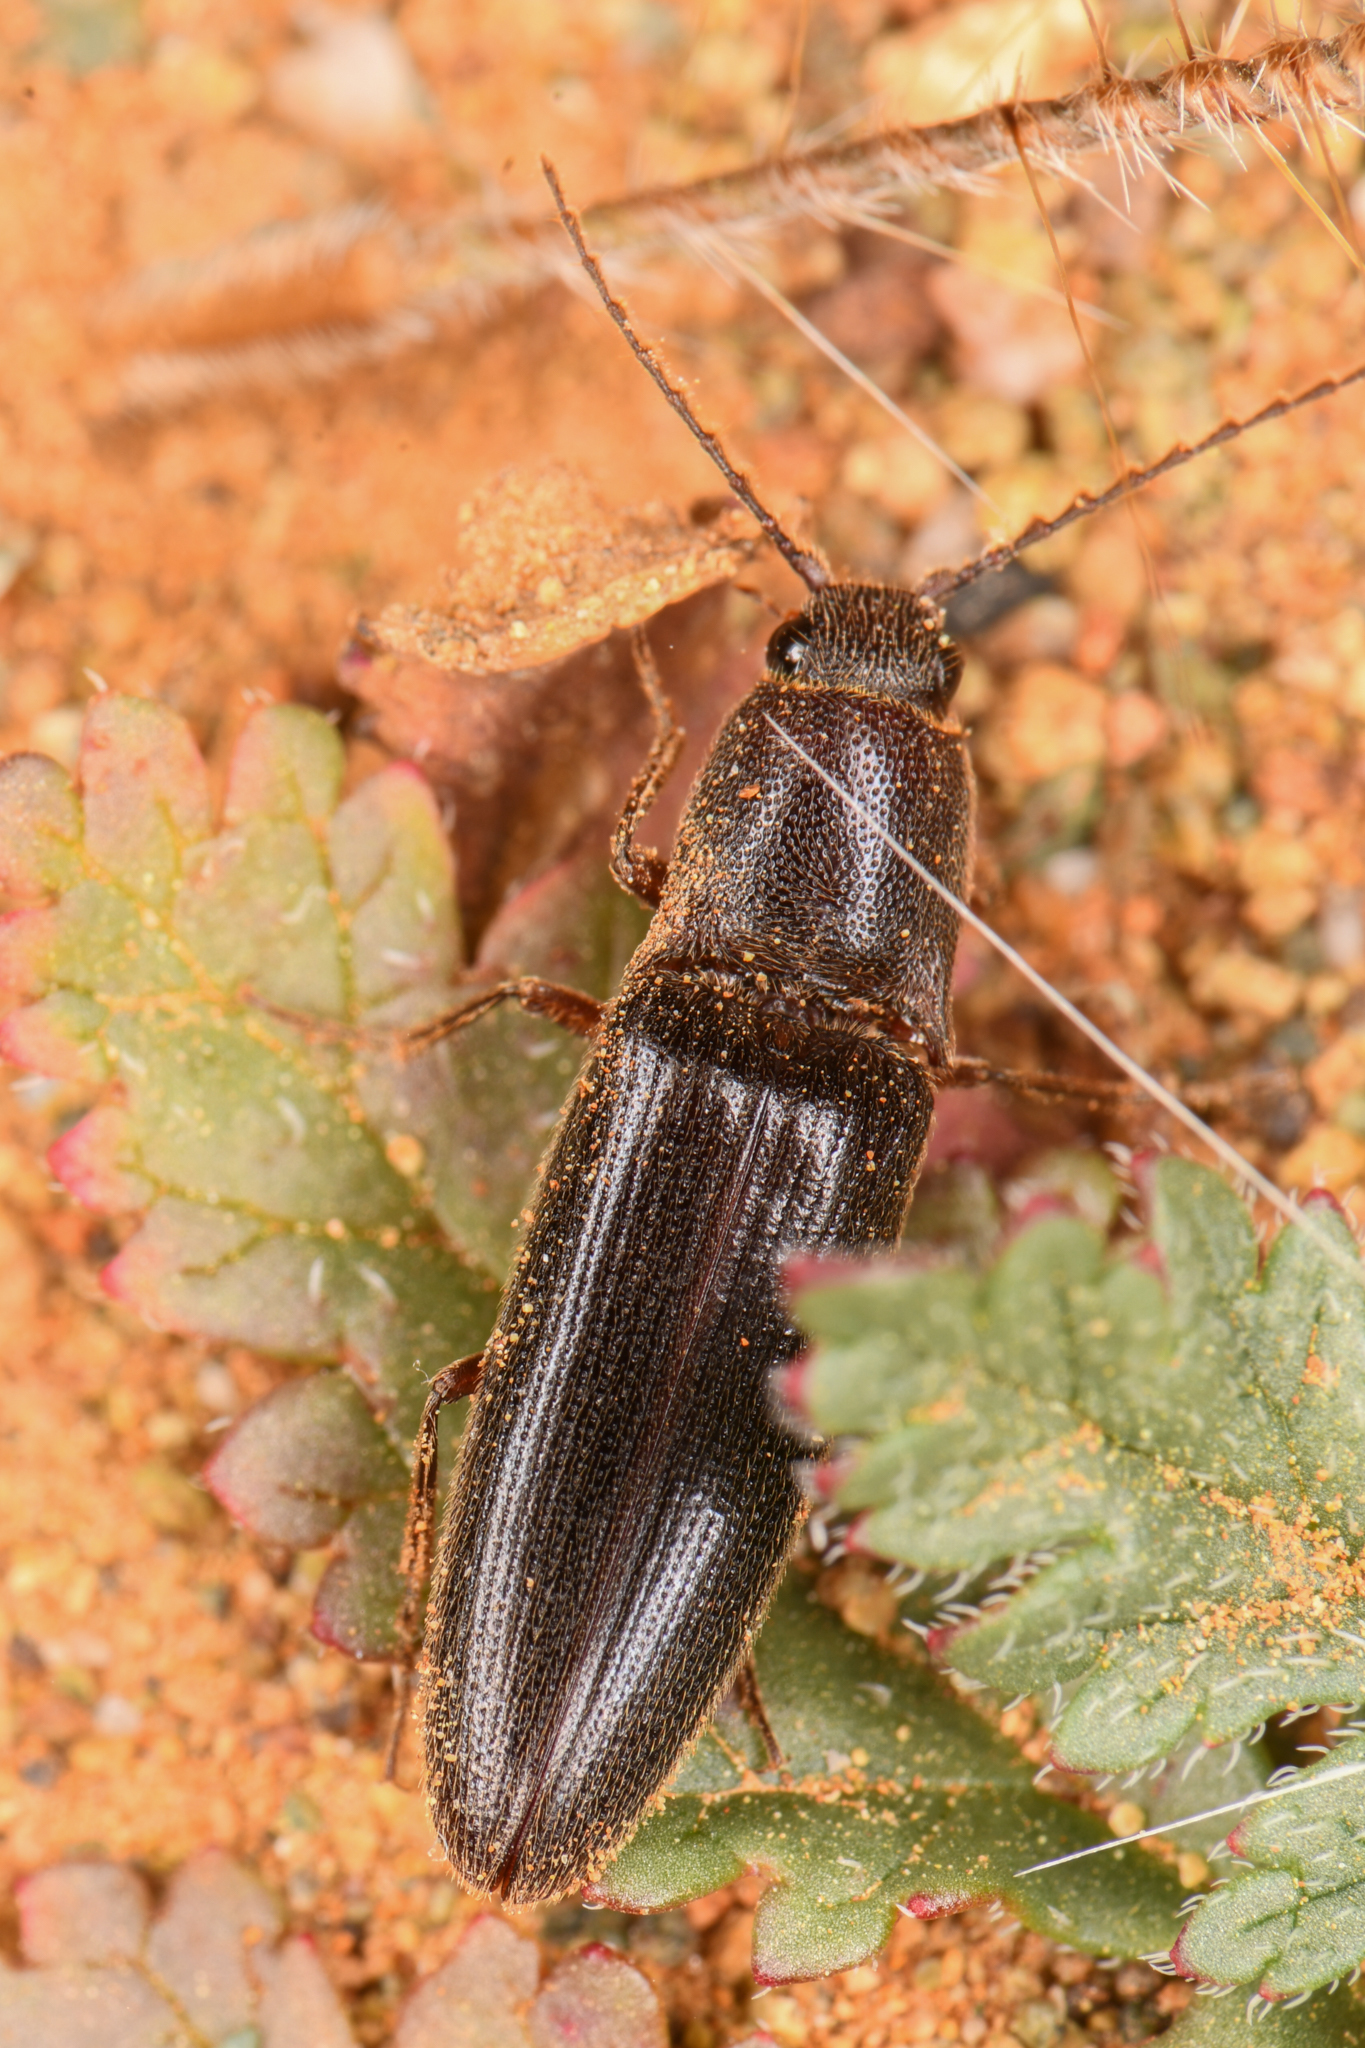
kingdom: Animalia
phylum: Arthropoda
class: Insecta
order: Coleoptera
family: Elateridae
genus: Melanotus
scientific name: Melanotus longulus
